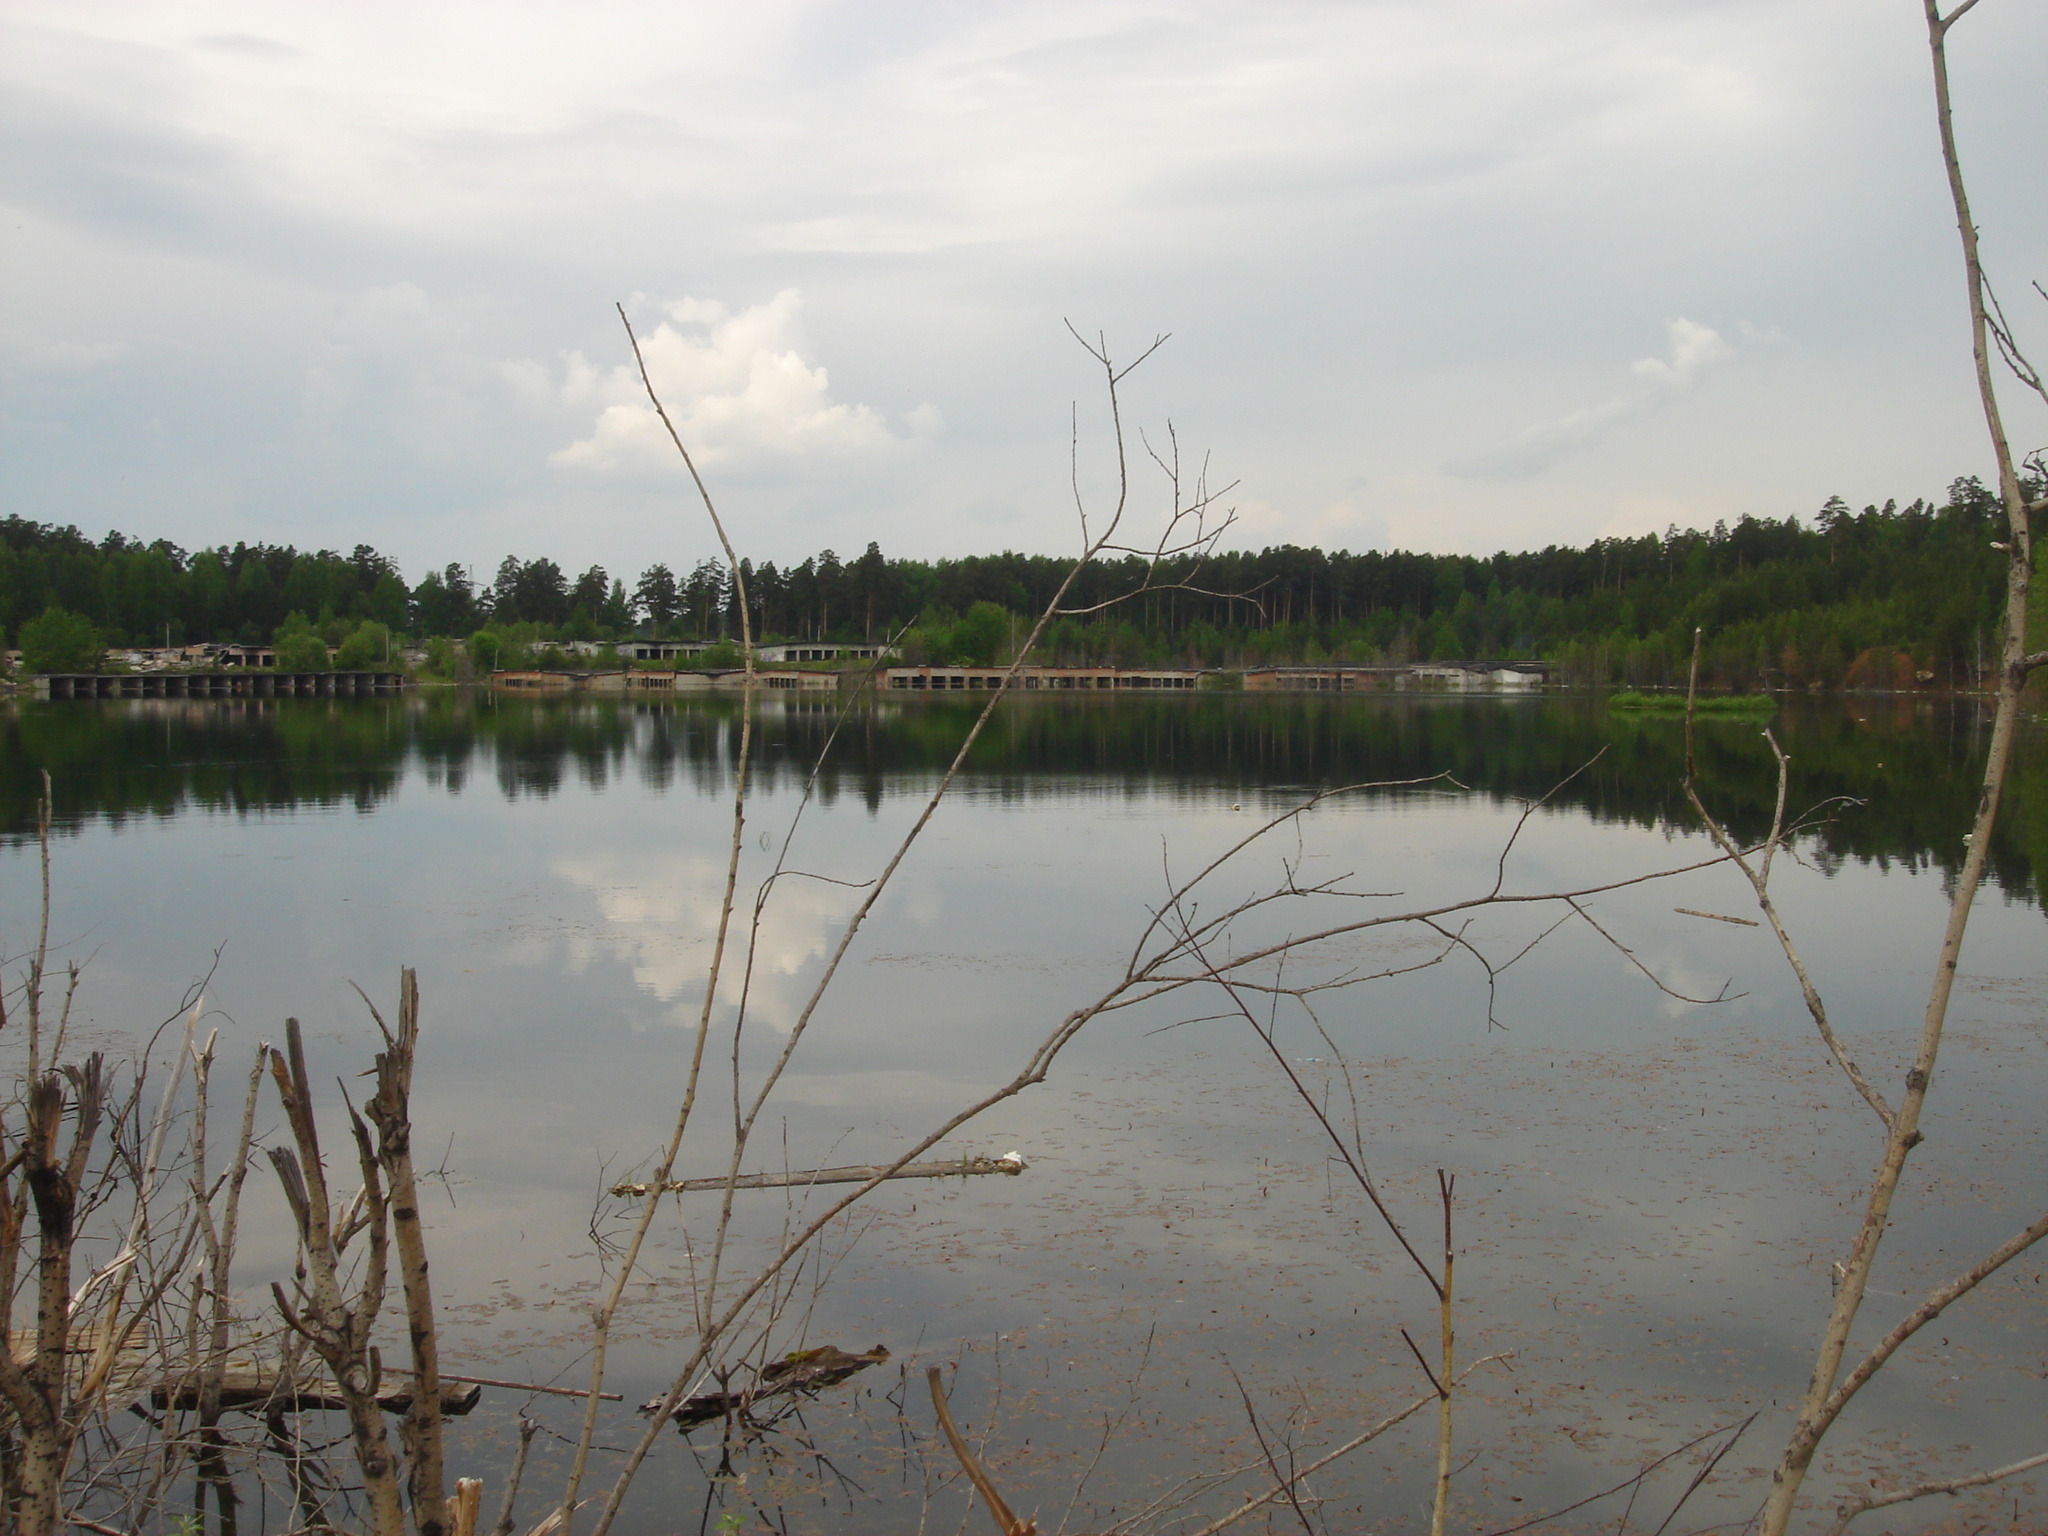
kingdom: Plantae
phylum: Tracheophyta
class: Liliopsida
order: Alismatales
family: Potamogetonaceae
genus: Potamogeton
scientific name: Potamogeton natans
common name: Broad-leaved pondweed
